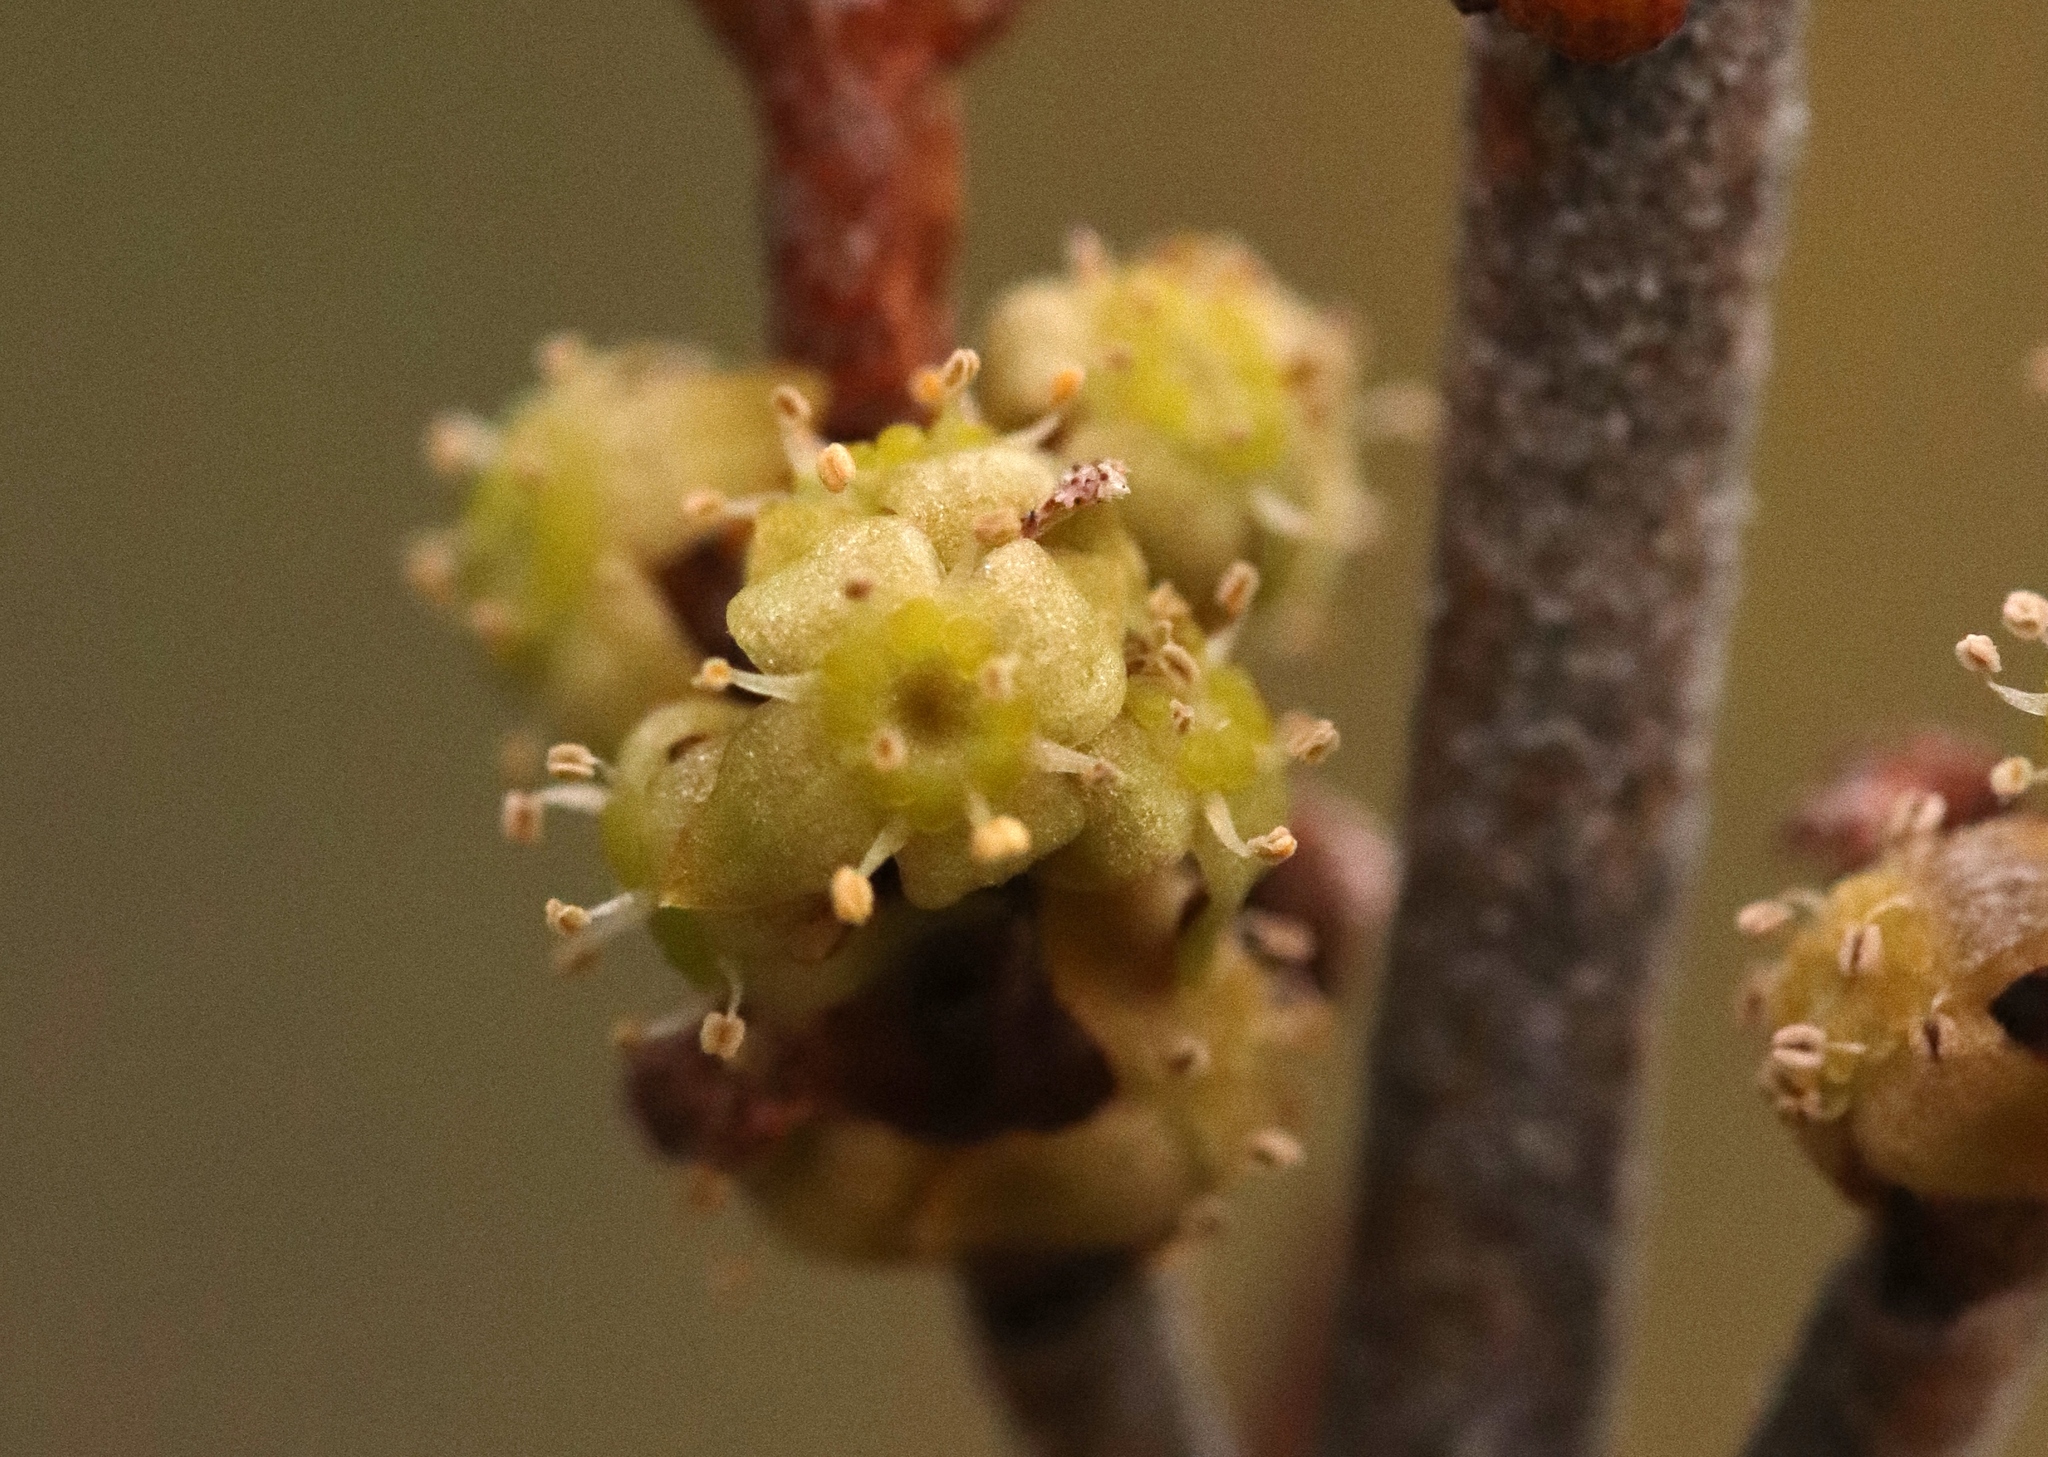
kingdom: Plantae
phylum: Tracheophyta
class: Magnoliopsida
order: Rosales
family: Elaeagnaceae
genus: Shepherdia
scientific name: Shepherdia canadensis
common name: Soapberry
